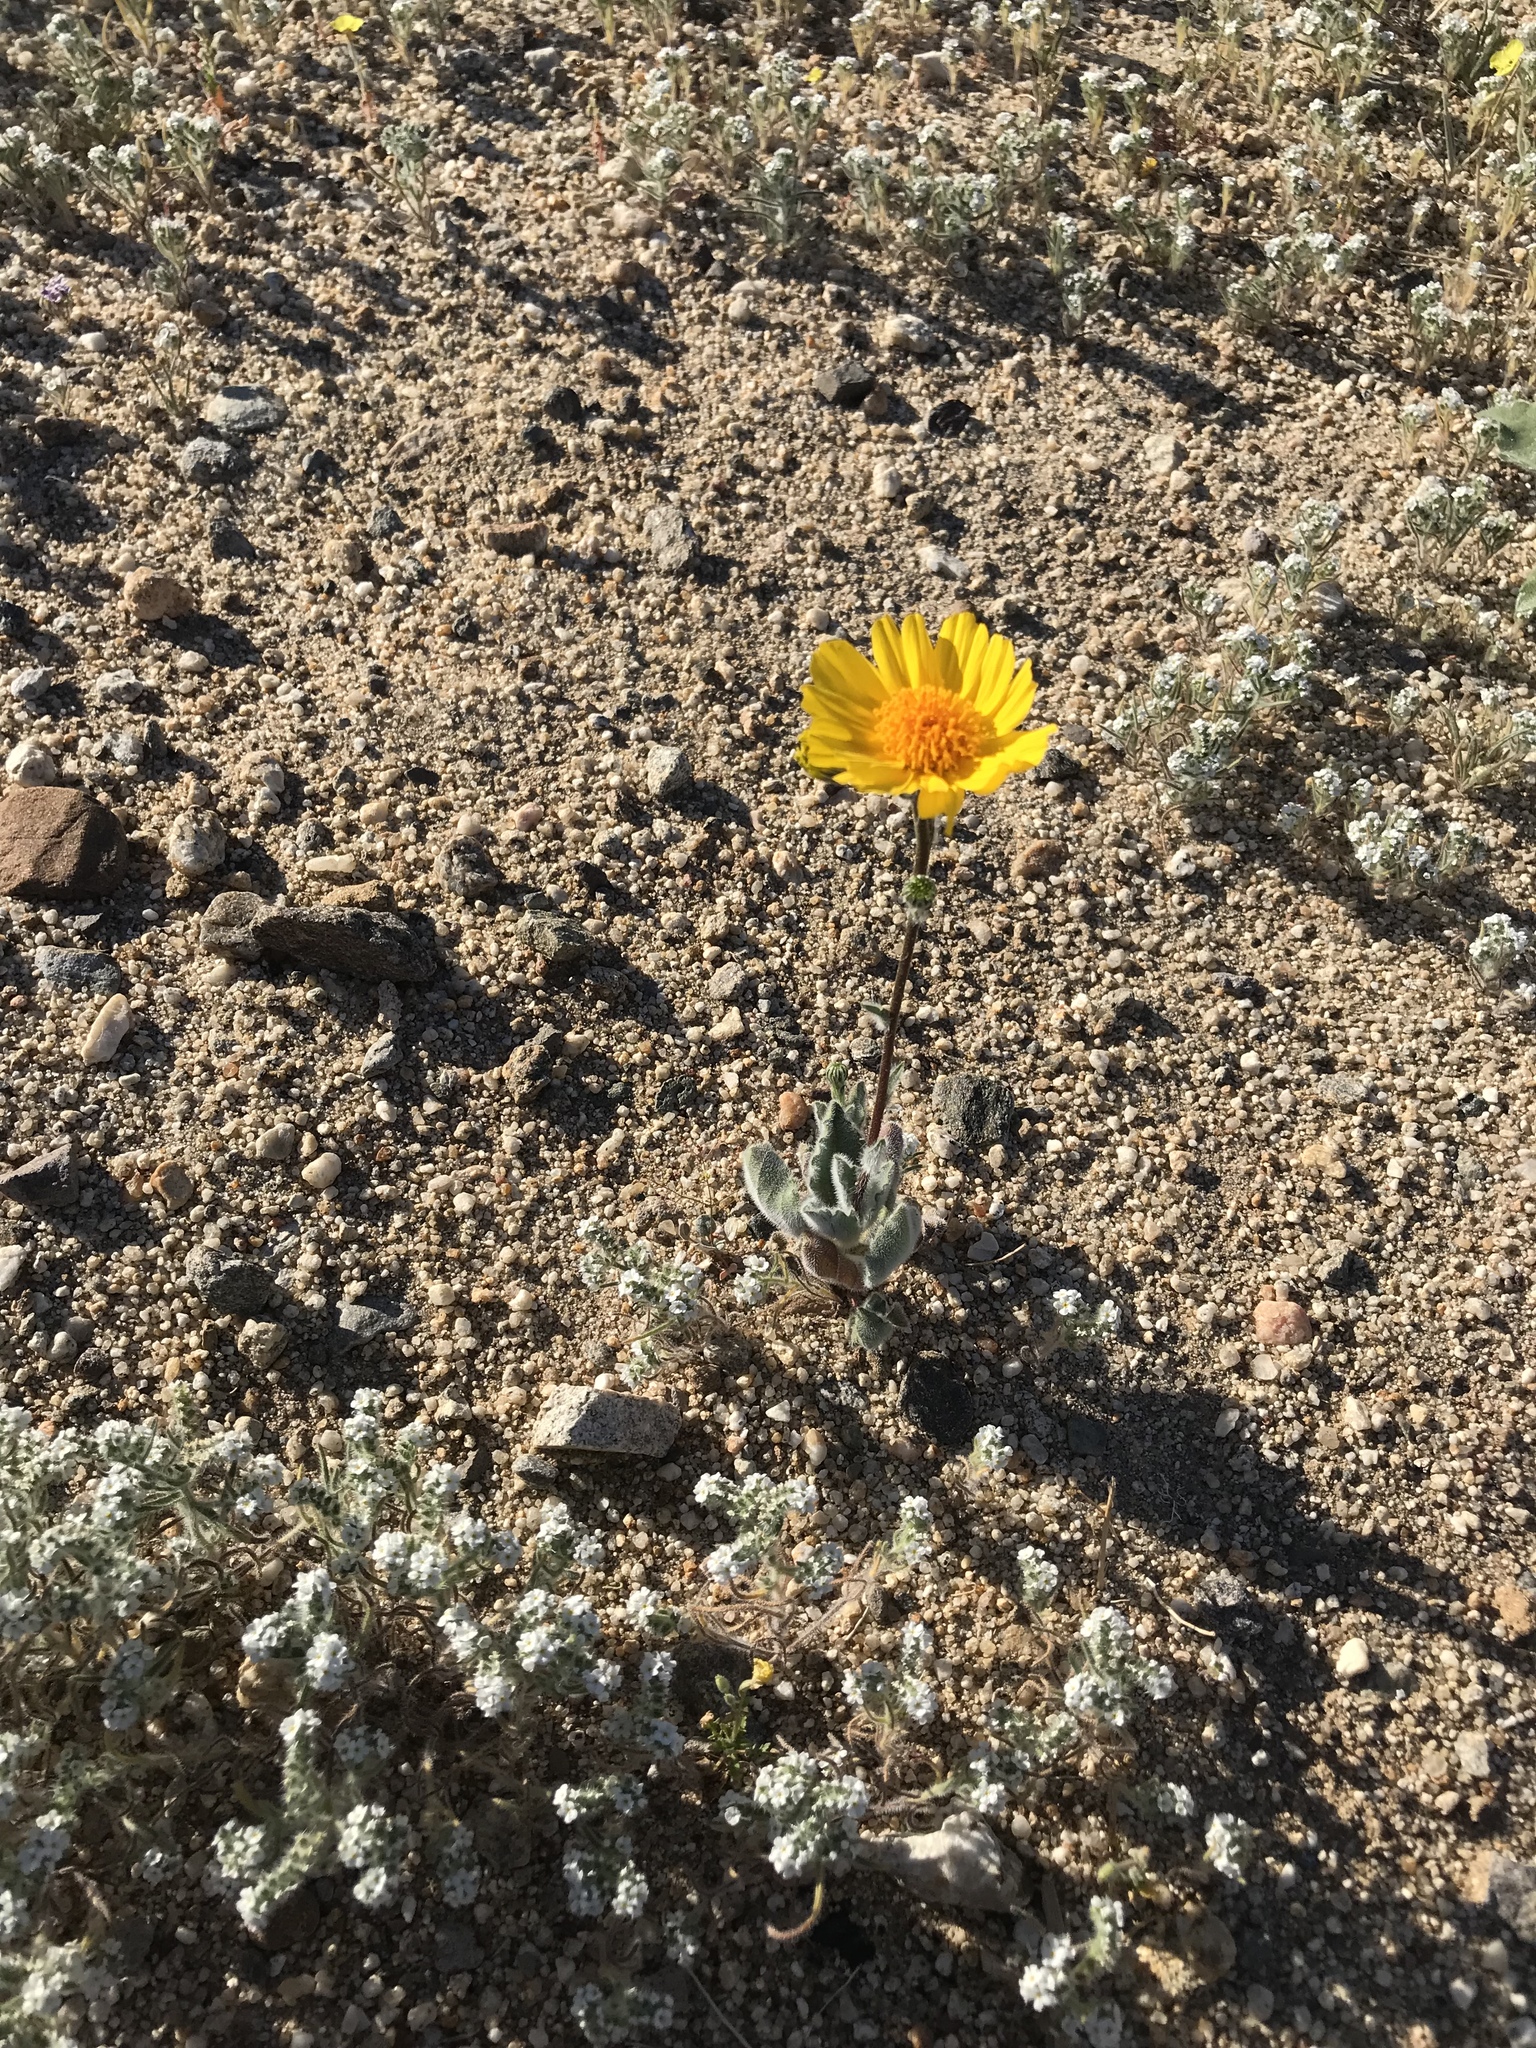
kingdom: Plantae
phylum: Tracheophyta
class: Magnoliopsida
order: Asterales
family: Asteraceae
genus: Geraea
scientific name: Geraea canescens
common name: Desert-gold
